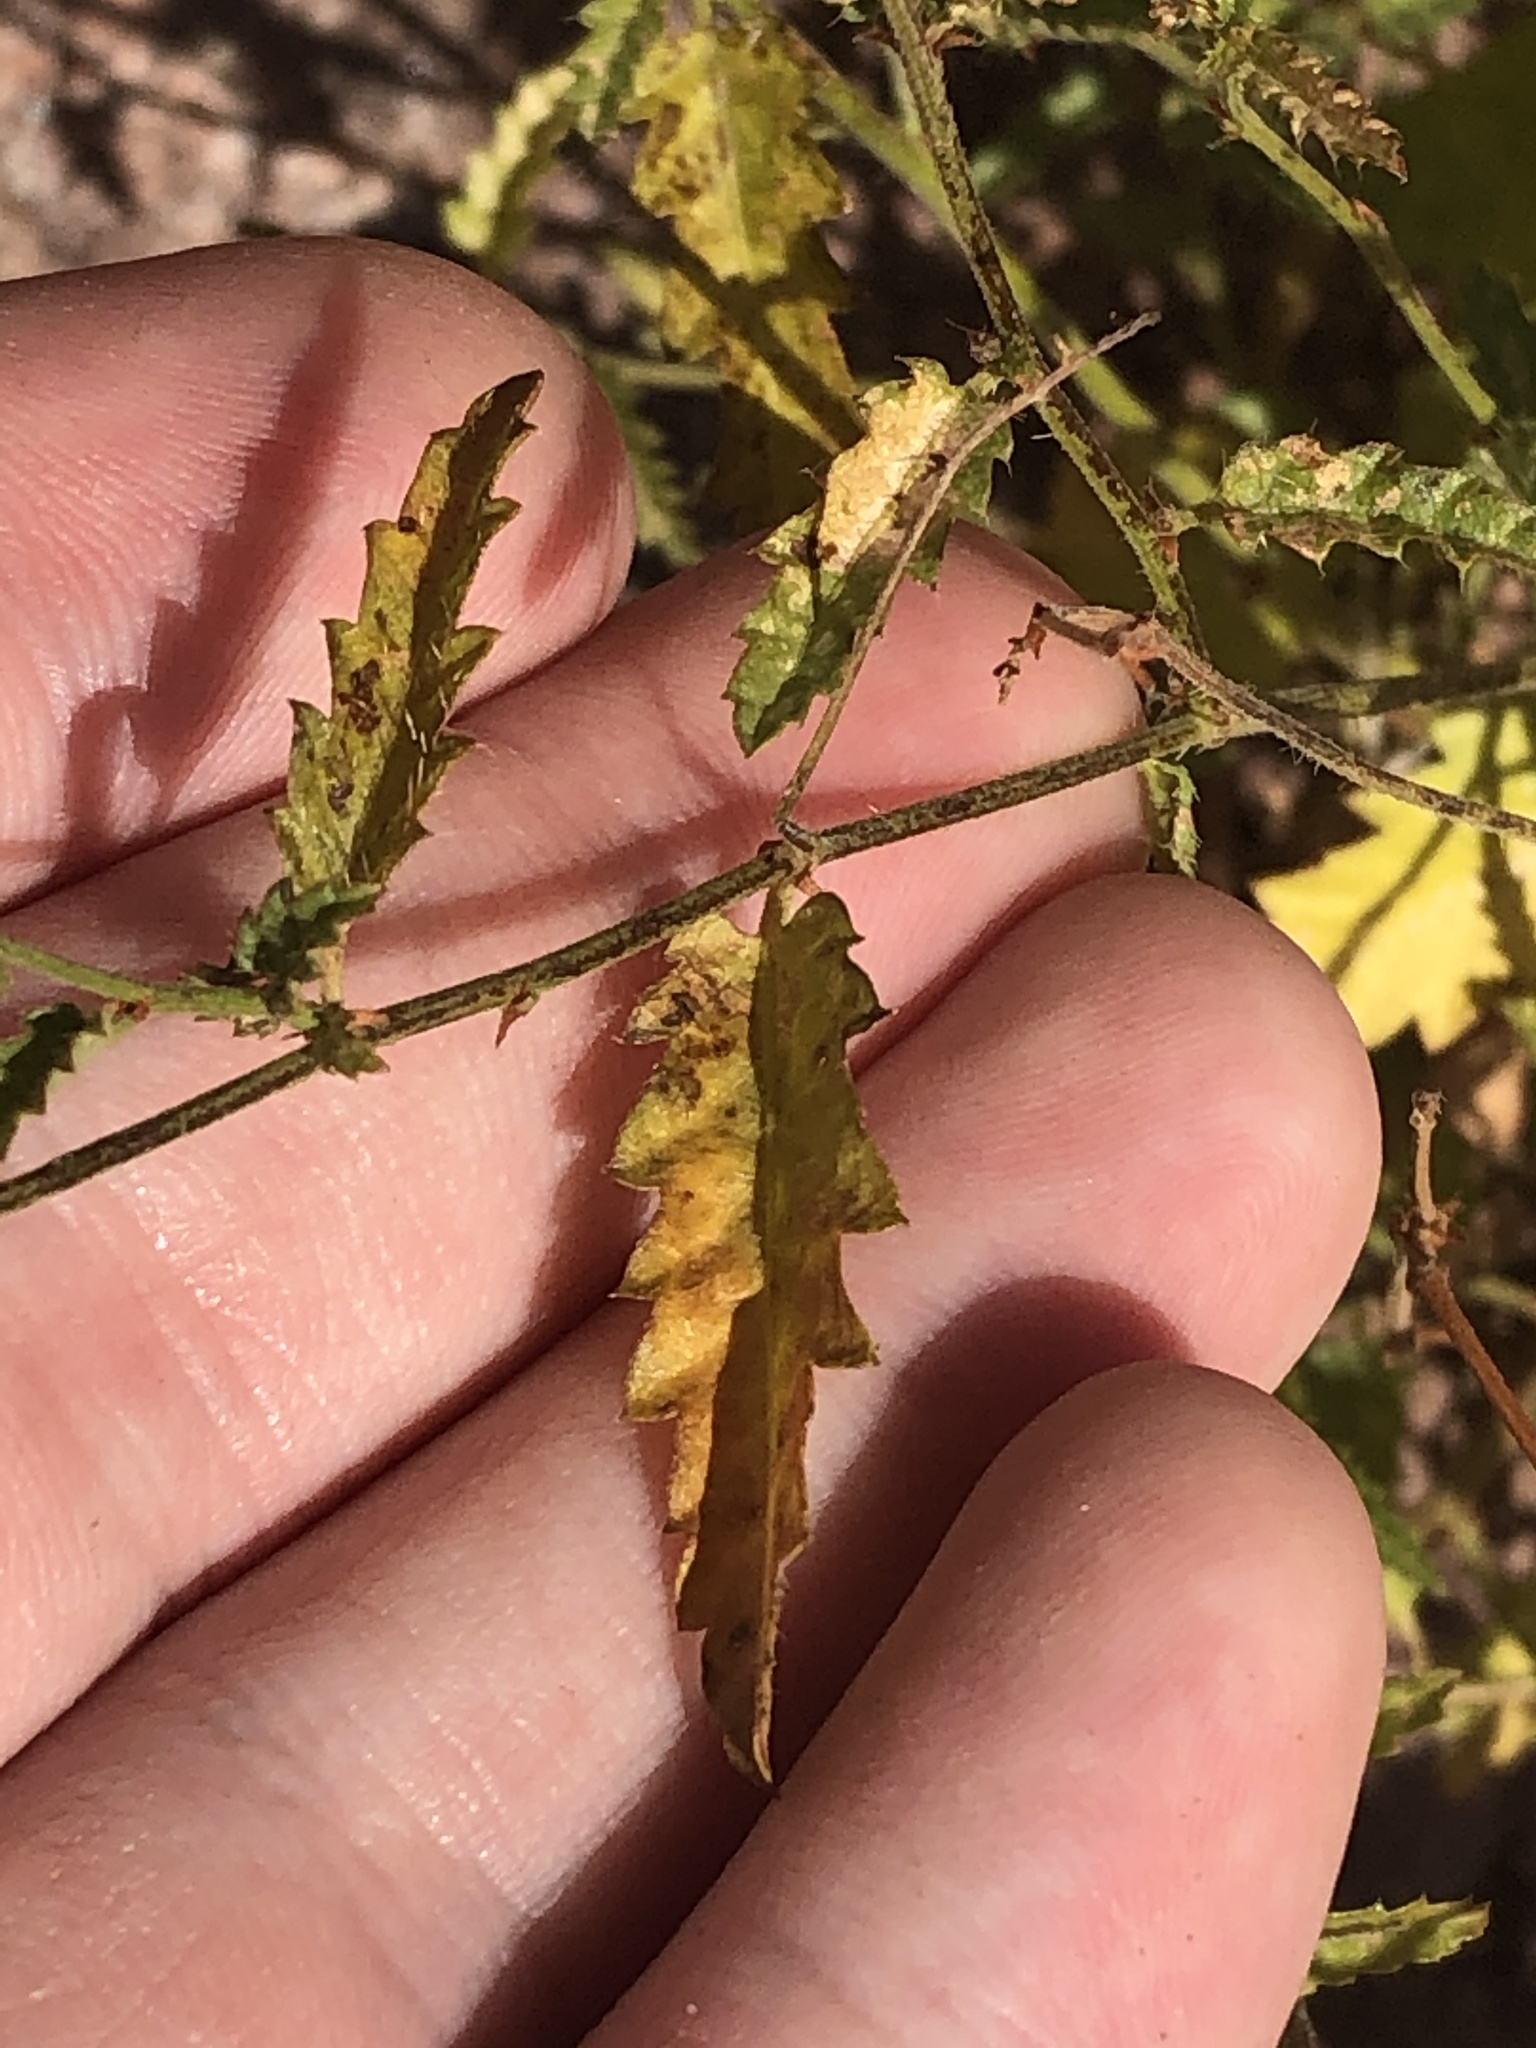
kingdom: Plantae
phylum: Tracheophyta
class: Magnoliopsida
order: Malpighiales
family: Euphorbiaceae
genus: Tragia
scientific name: Tragia ramosa
